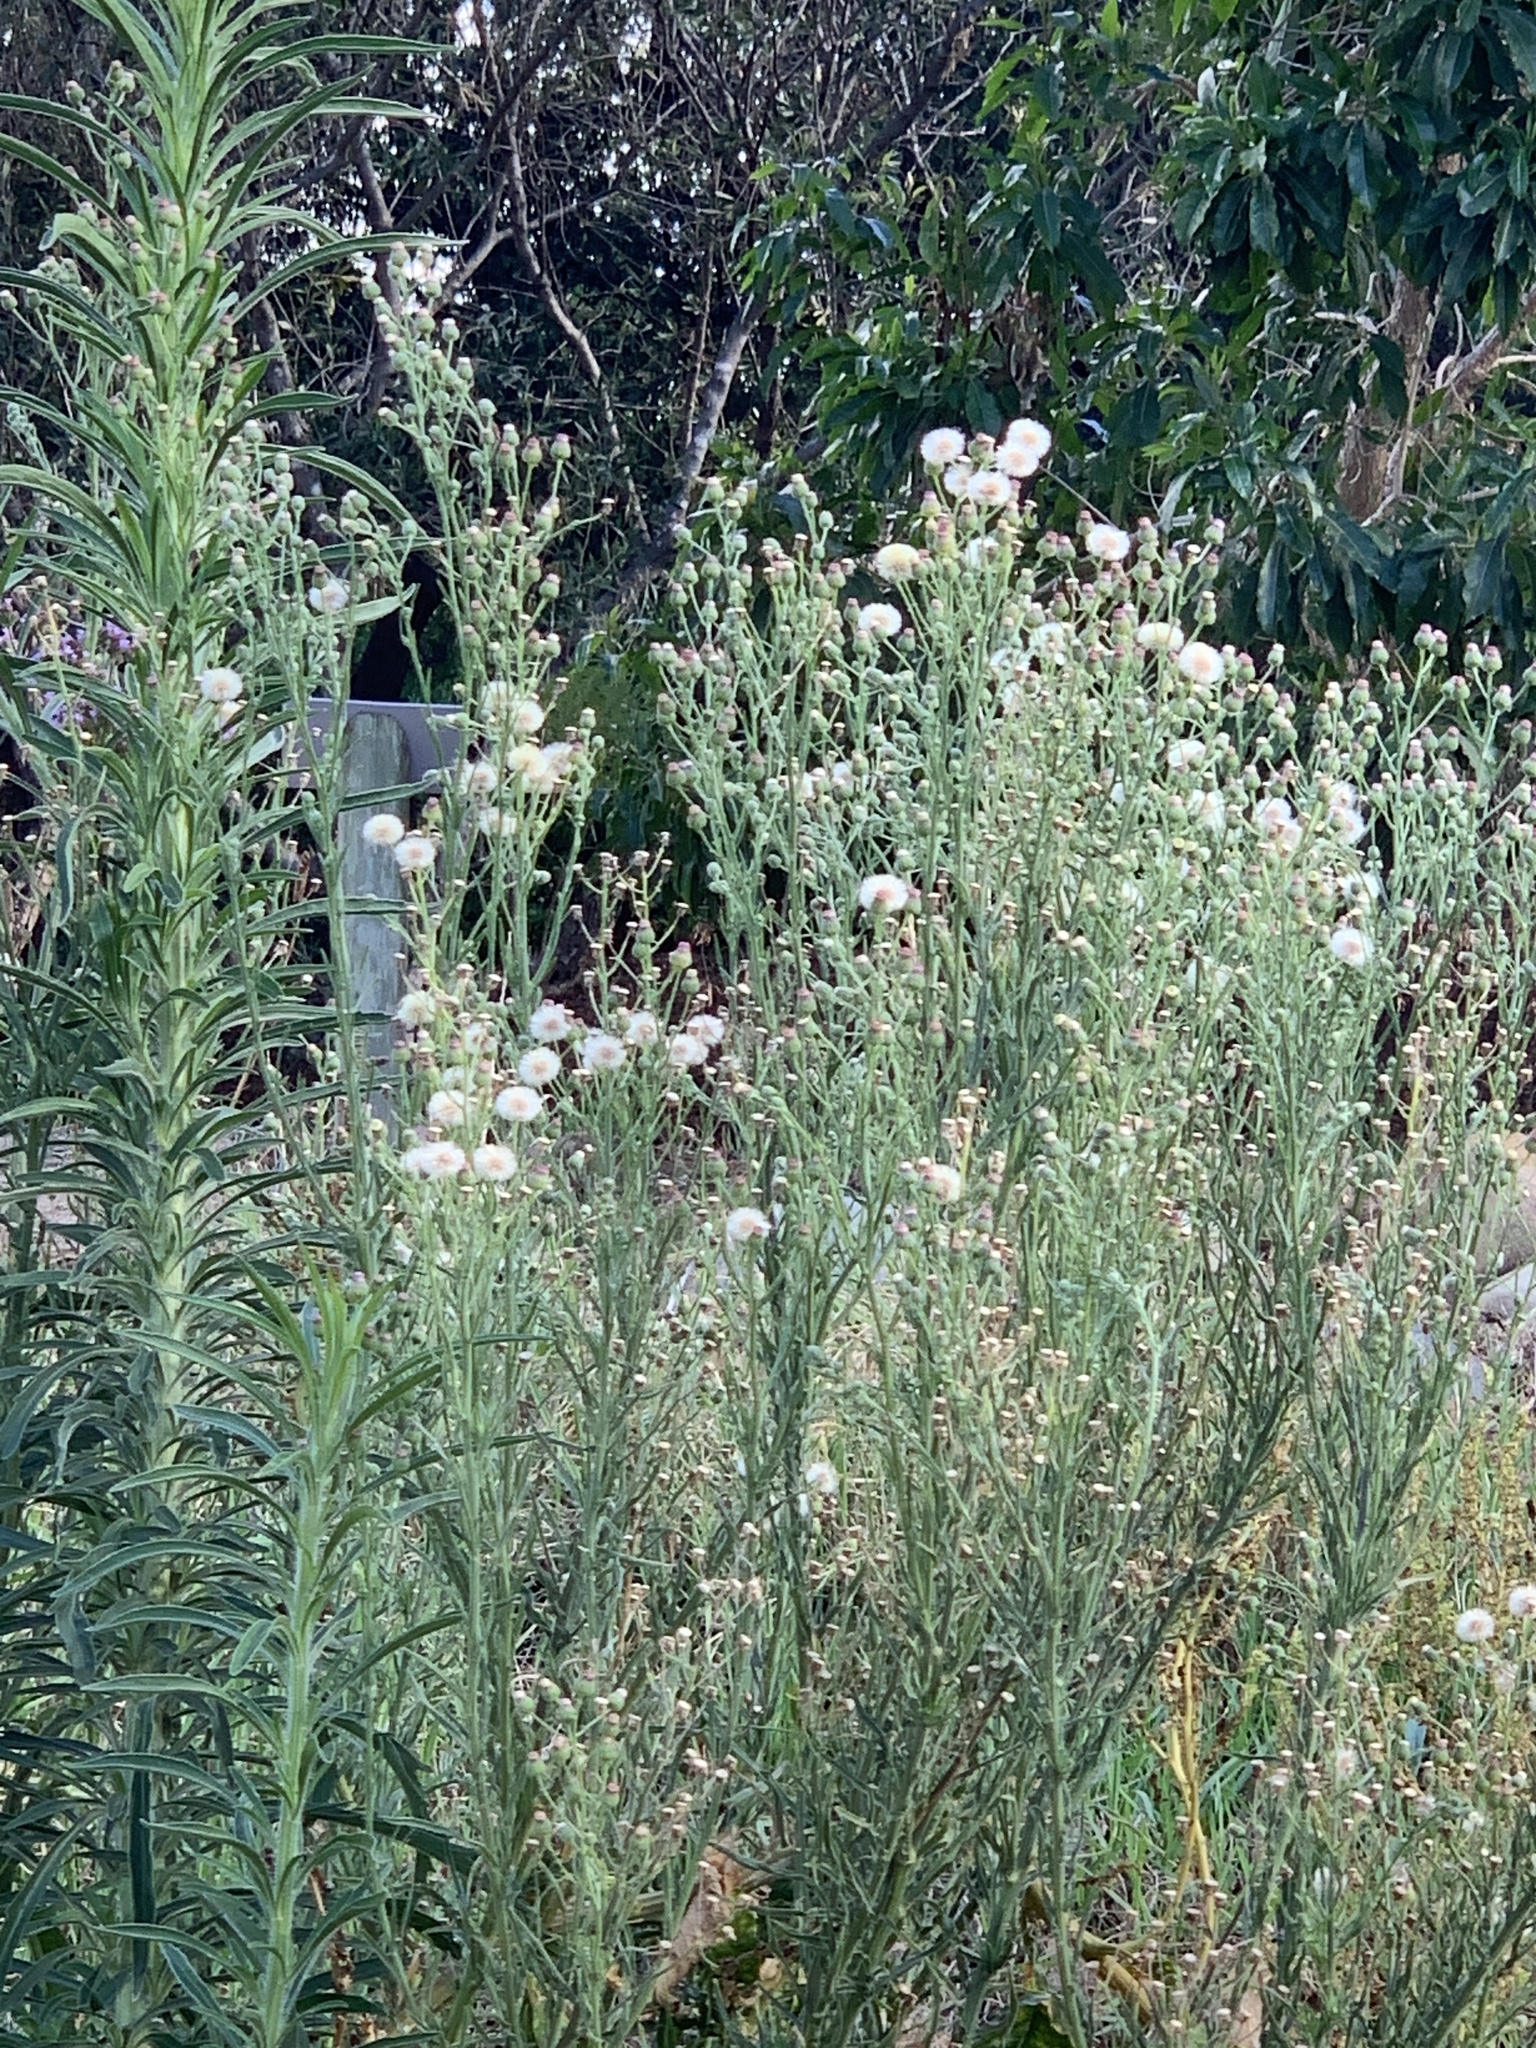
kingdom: Plantae
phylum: Tracheophyta
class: Magnoliopsida
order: Asterales
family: Asteraceae
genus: Erigeron
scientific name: Erigeron bonariensis
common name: Argentine fleabane
